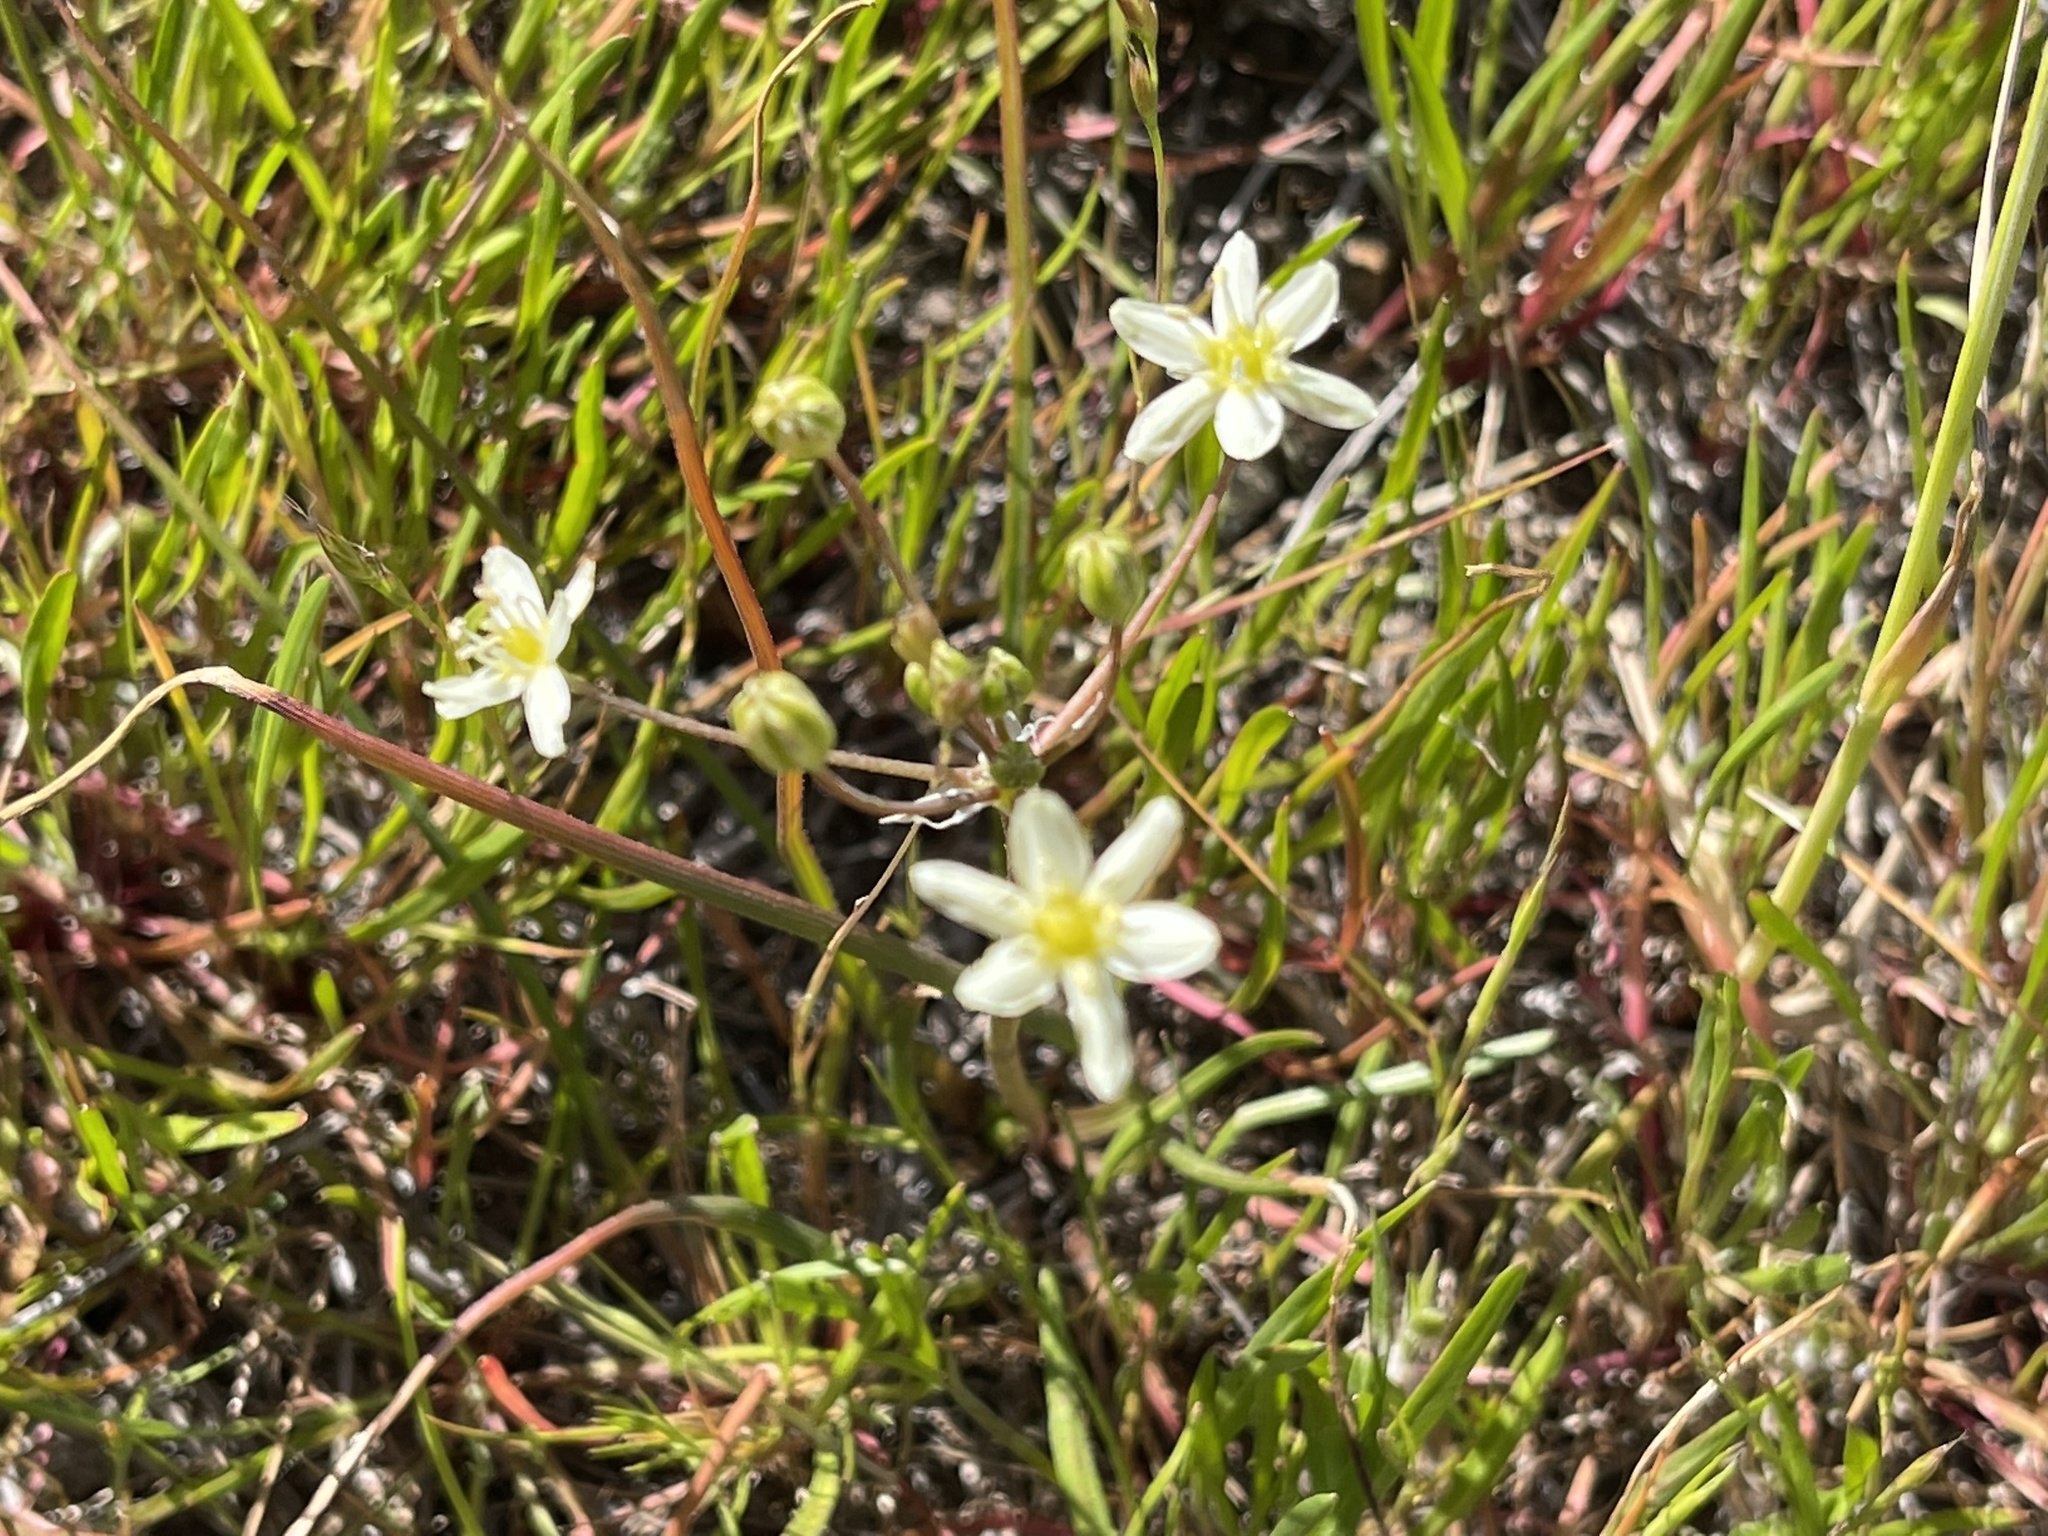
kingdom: Plantae
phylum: Tracheophyta
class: Liliopsida
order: Asparagales
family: Asparagaceae
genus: Muilla
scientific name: Muilla maritima
